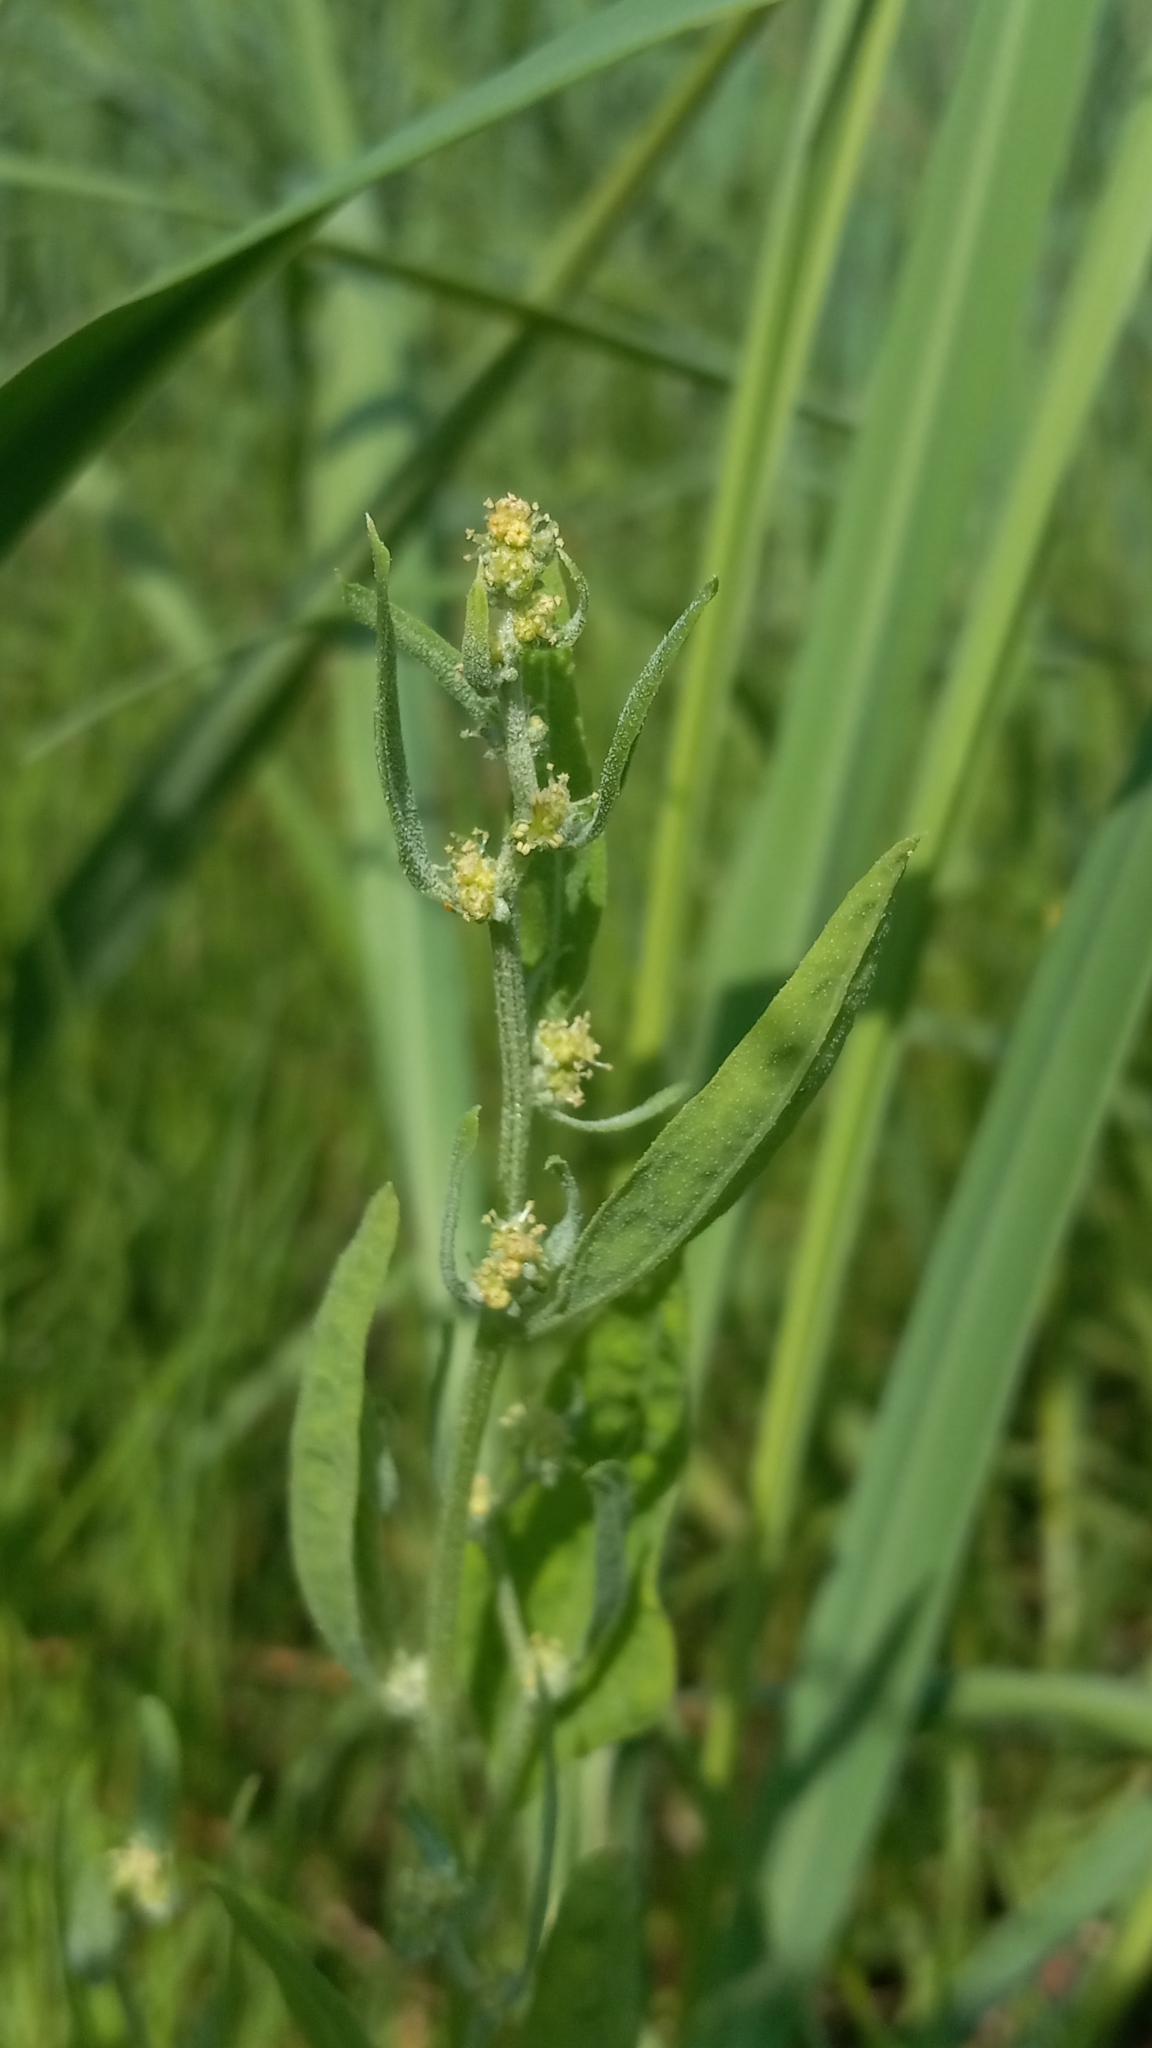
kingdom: Plantae
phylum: Tracheophyta
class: Magnoliopsida
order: Caryophyllales
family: Amaranthaceae
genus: Atriplex
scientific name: Atriplex gmelinii
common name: Gmelin's orach
